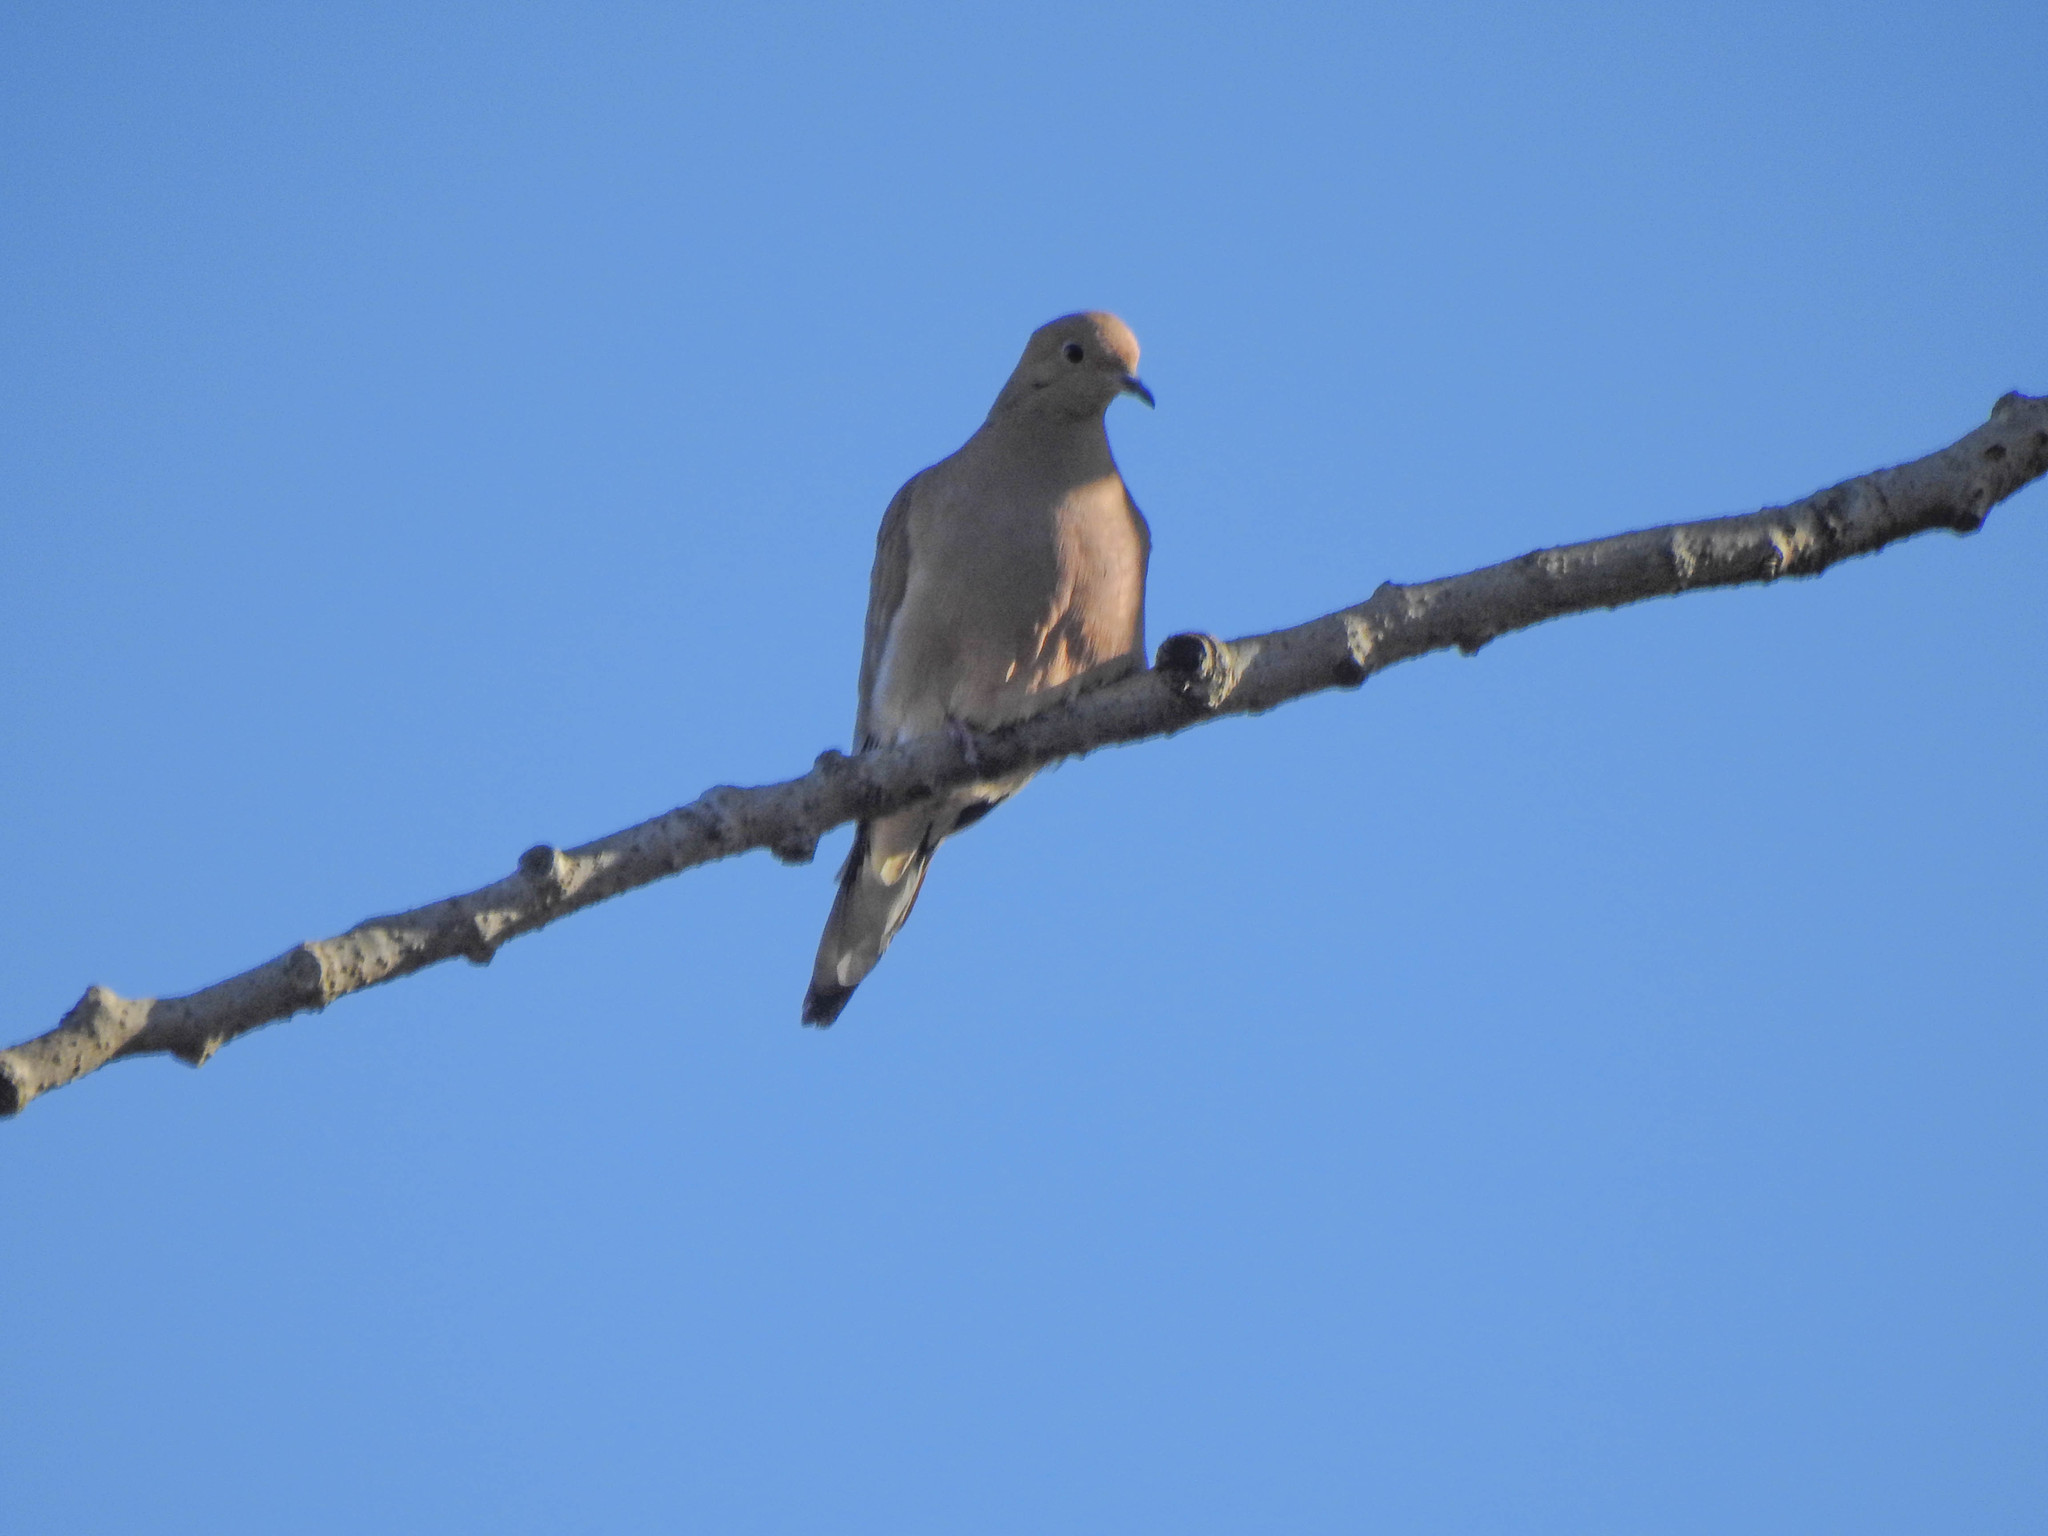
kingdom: Animalia
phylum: Chordata
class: Aves
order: Columbiformes
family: Columbidae
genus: Zenaida
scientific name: Zenaida macroura
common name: Mourning dove
